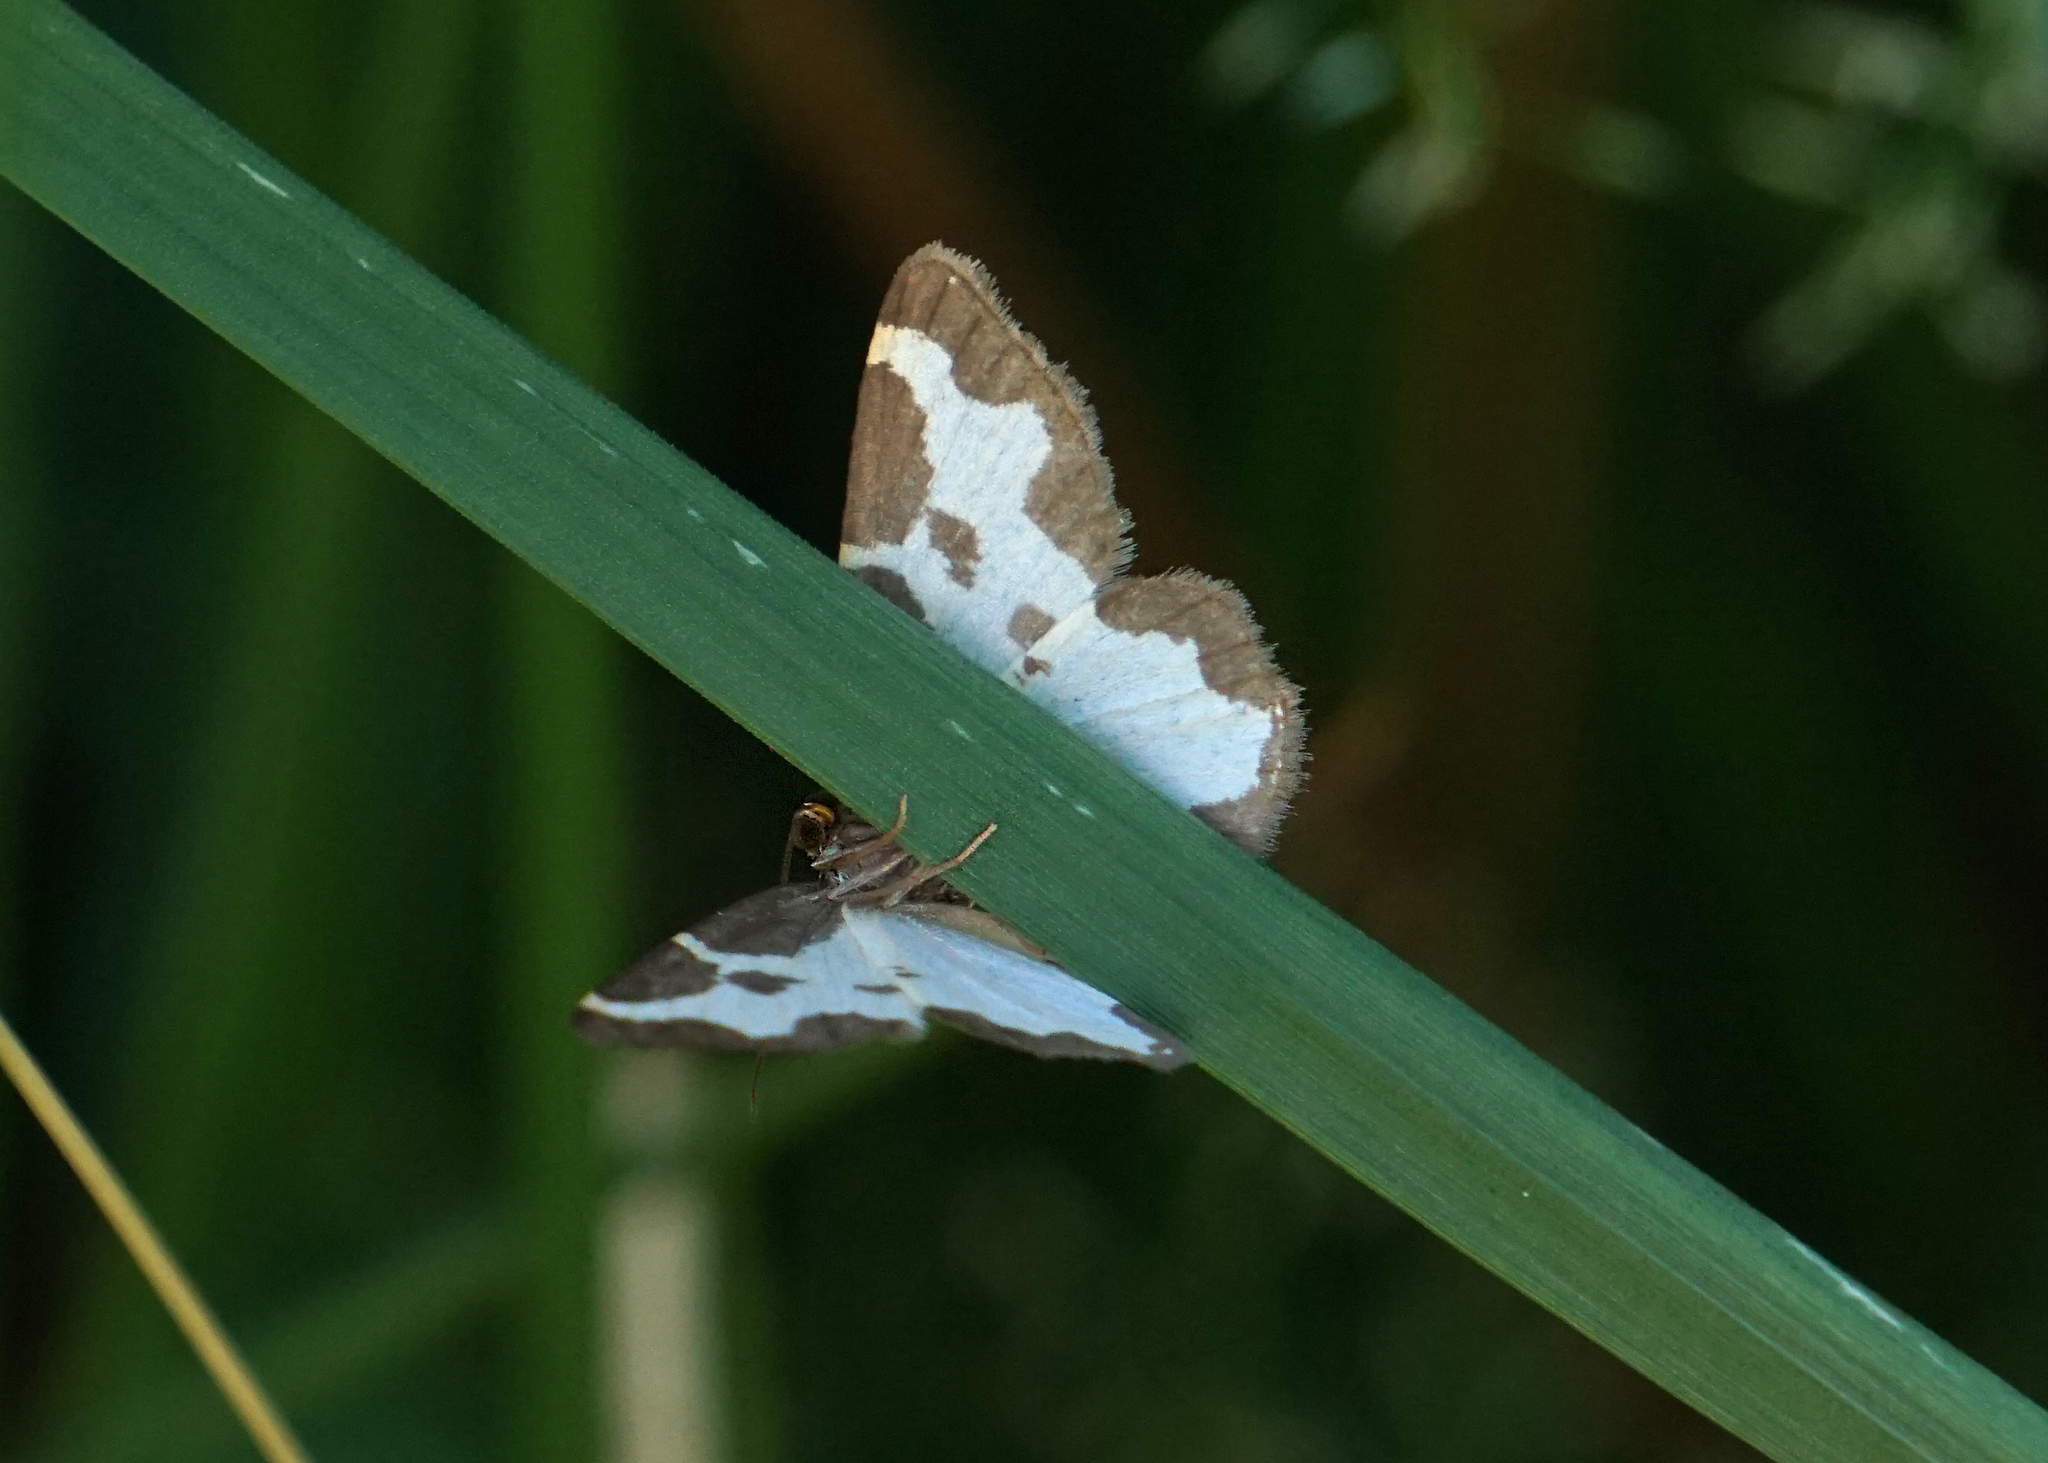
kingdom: Animalia
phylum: Arthropoda
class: Insecta
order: Lepidoptera
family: Geometridae
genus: Lomaspilis
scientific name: Lomaspilis marginata
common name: Clouded border
